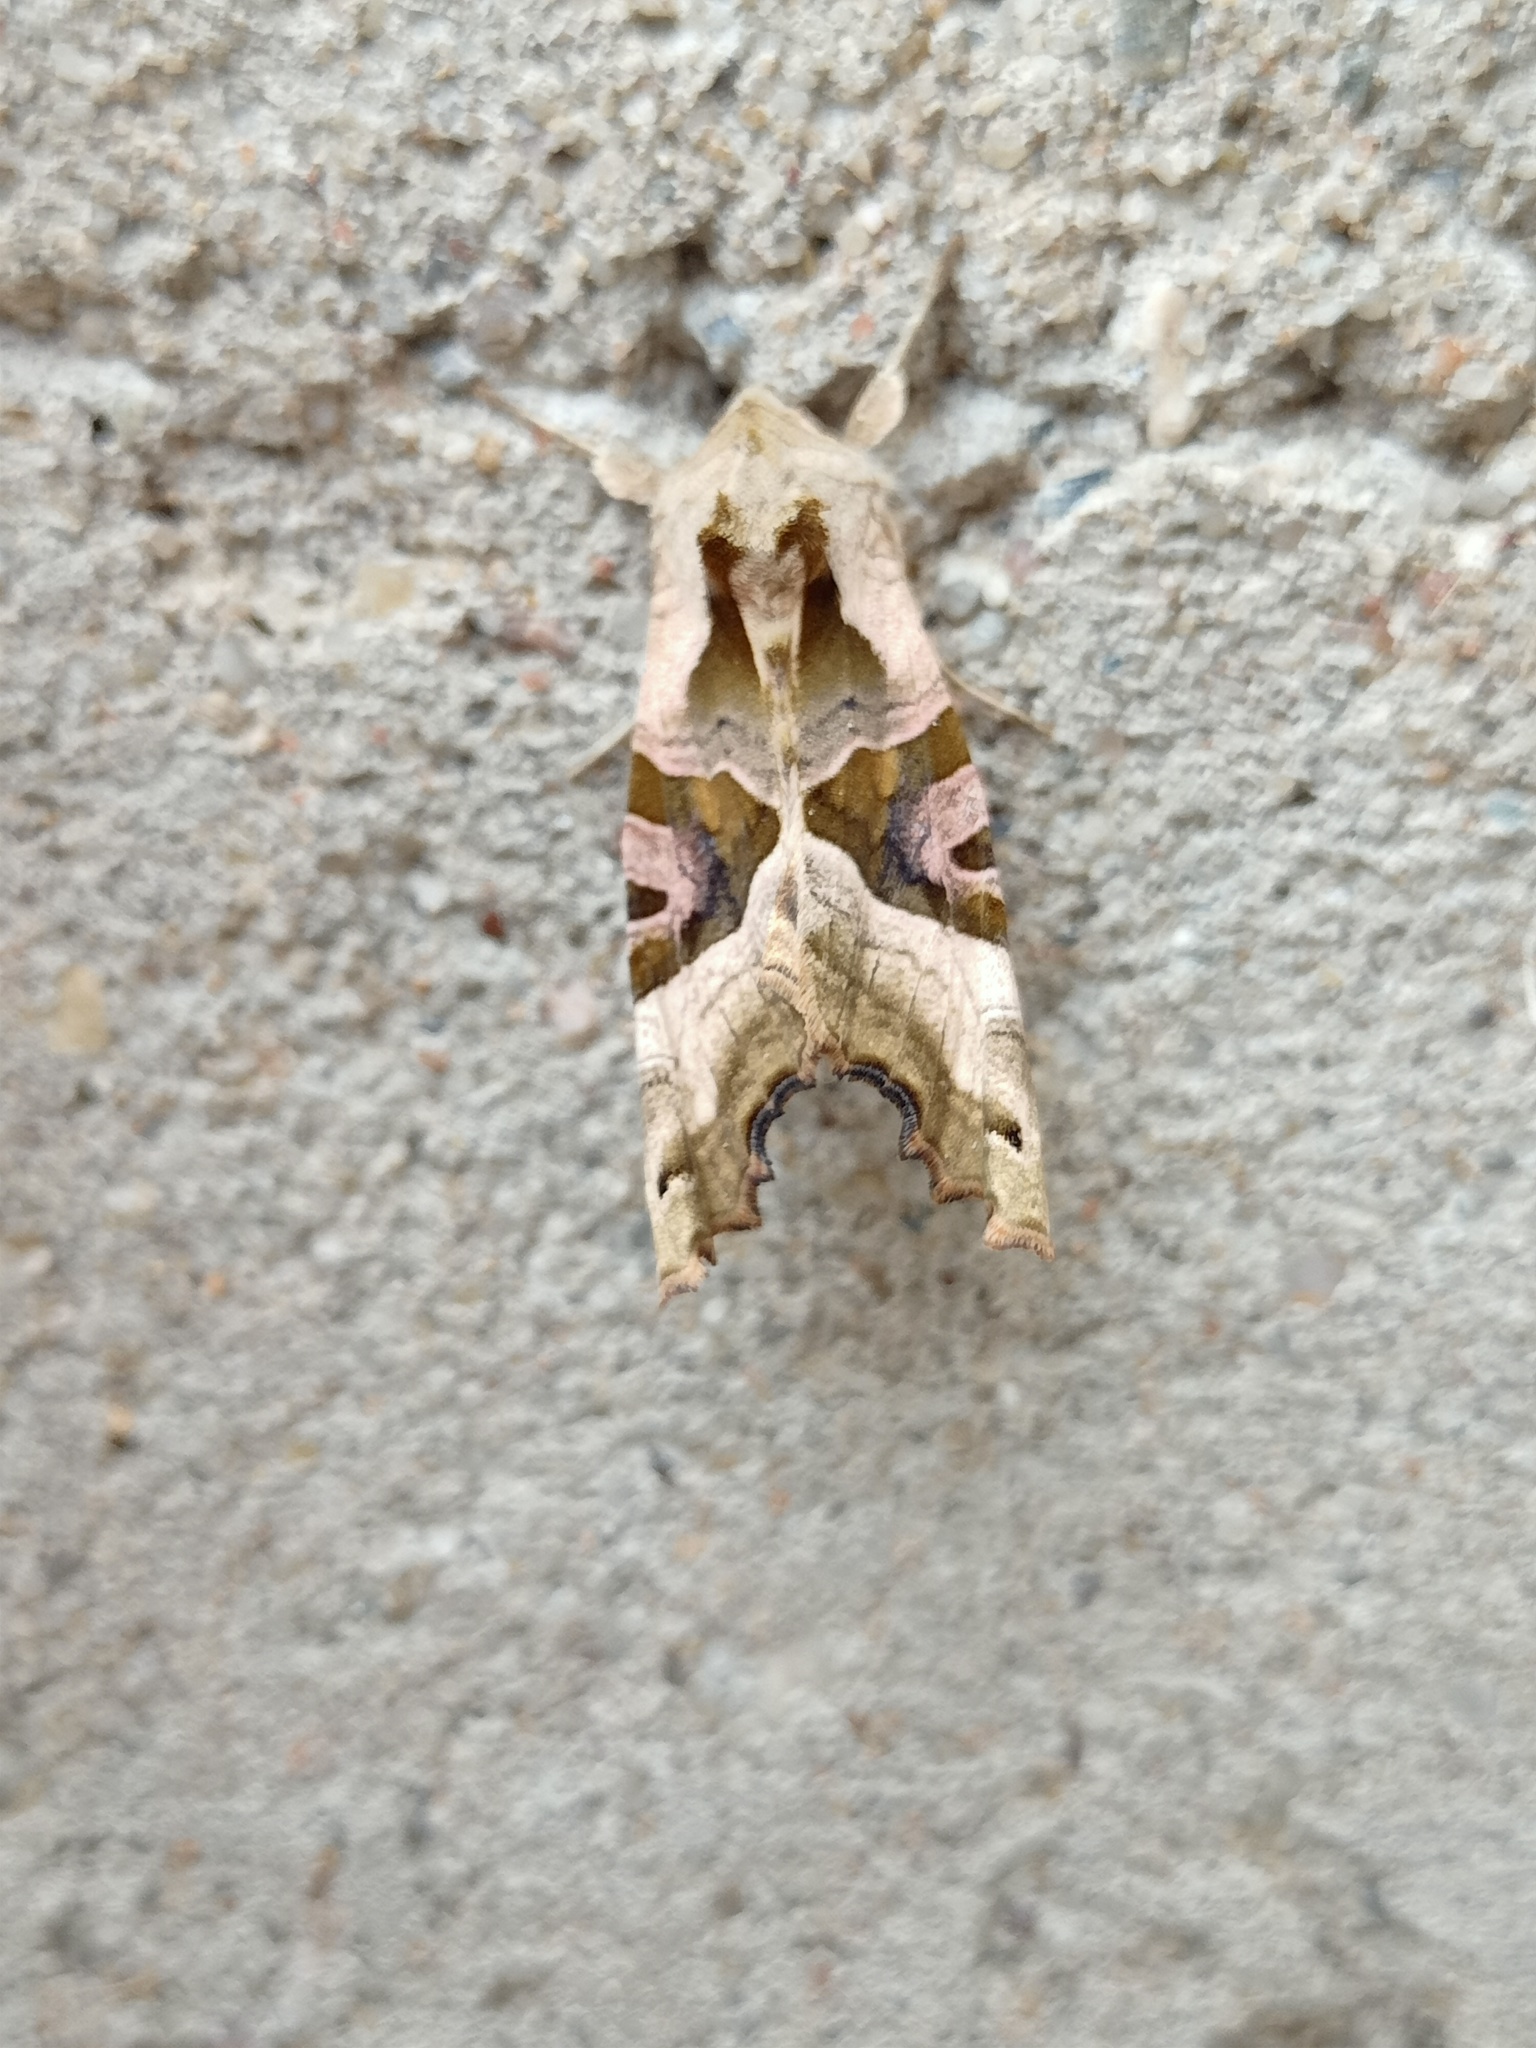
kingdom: Animalia
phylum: Arthropoda
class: Insecta
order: Lepidoptera
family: Noctuidae
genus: Phlogophora
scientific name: Phlogophora meticulosa
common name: Angle shades
